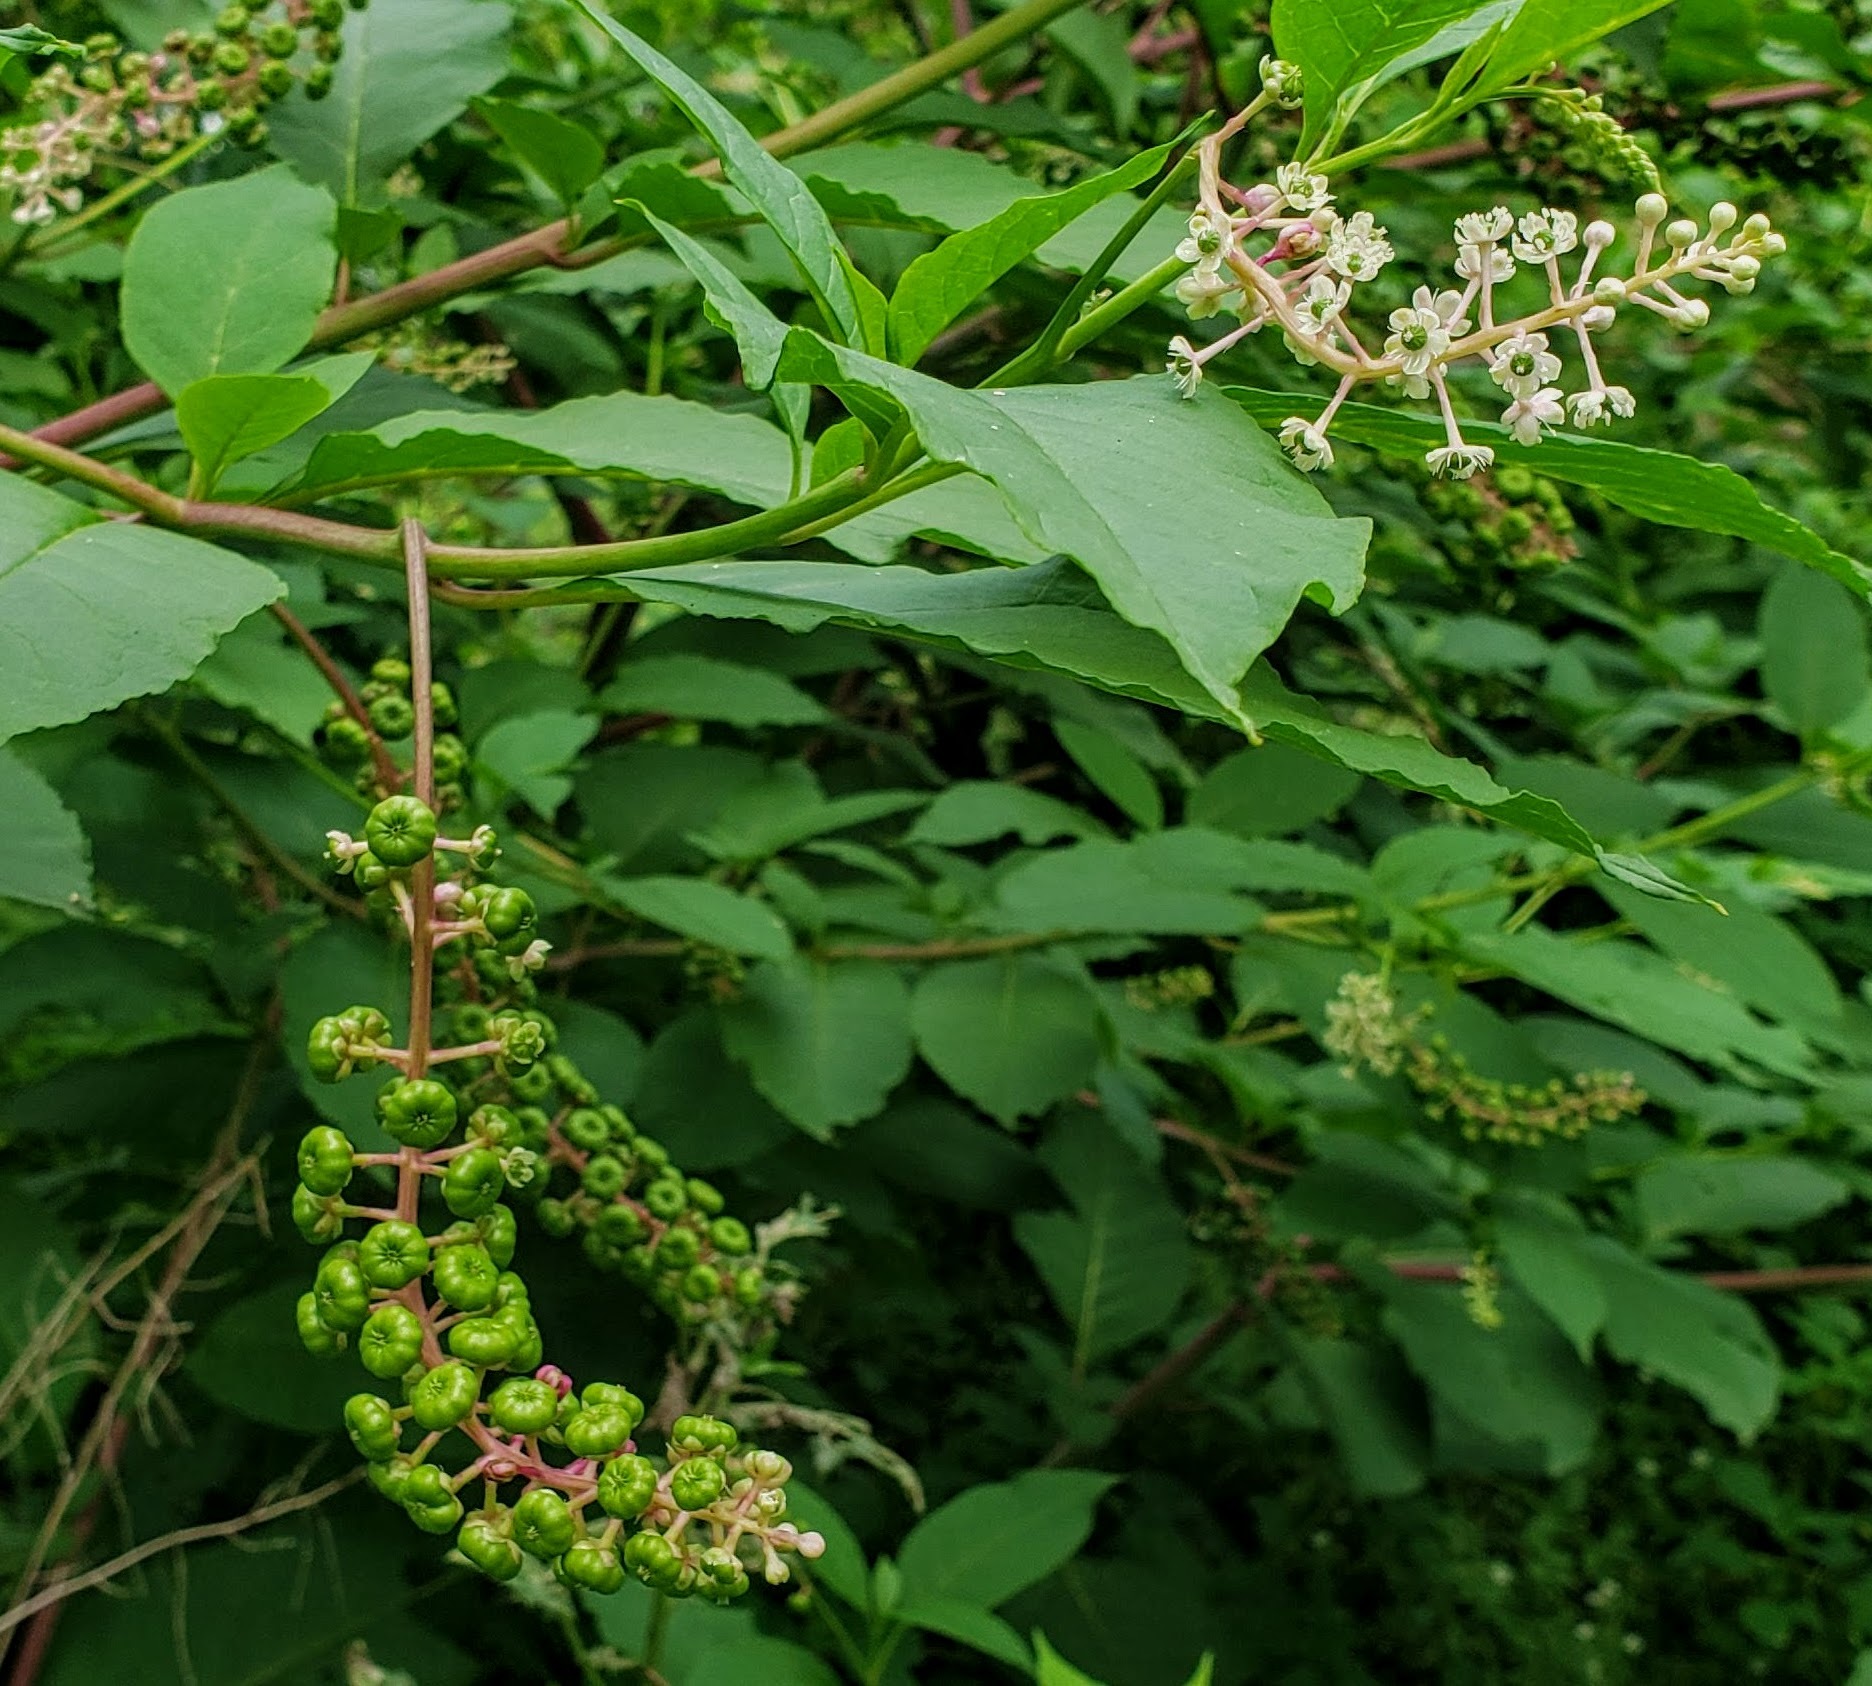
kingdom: Plantae
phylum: Tracheophyta
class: Magnoliopsida
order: Caryophyllales
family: Phytolaccaceae
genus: Phytolacca
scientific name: Phytolacca americana
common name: American pokeweed
